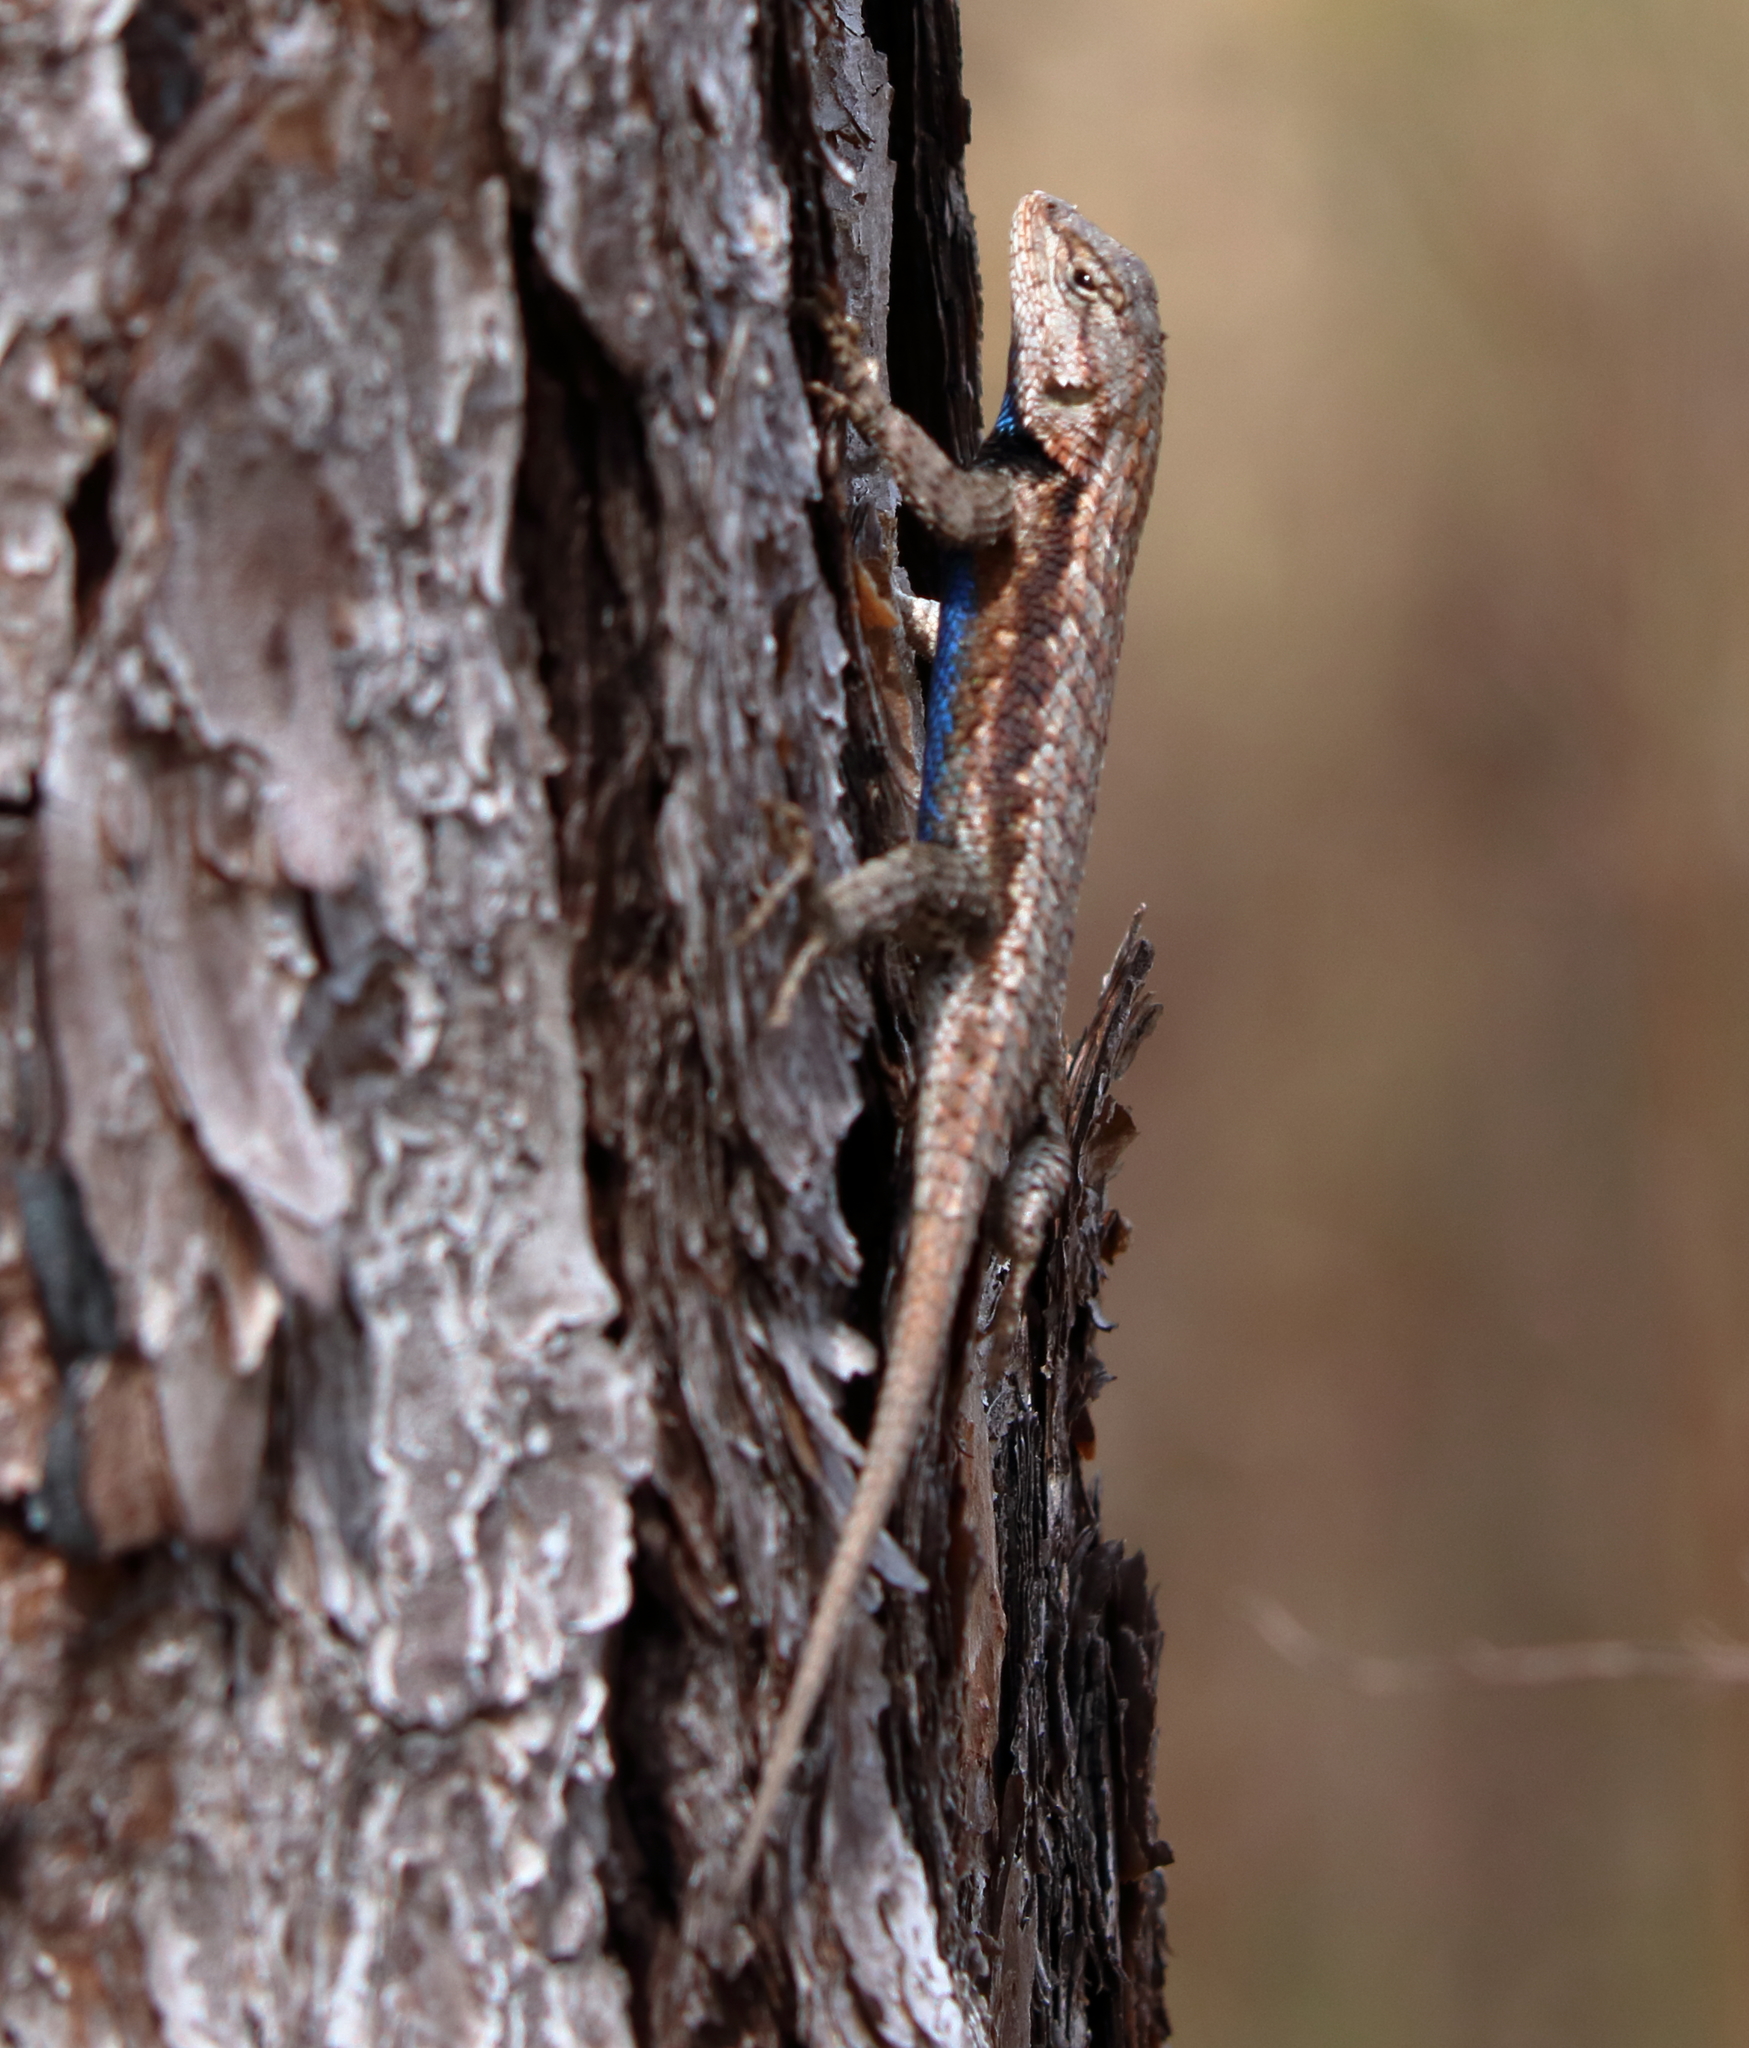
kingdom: Animalia
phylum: Chordata
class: Squamata
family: Phrynosomatidae
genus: Sceloporus
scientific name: Sceloporus consobrinus
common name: Southern prairie lizard
